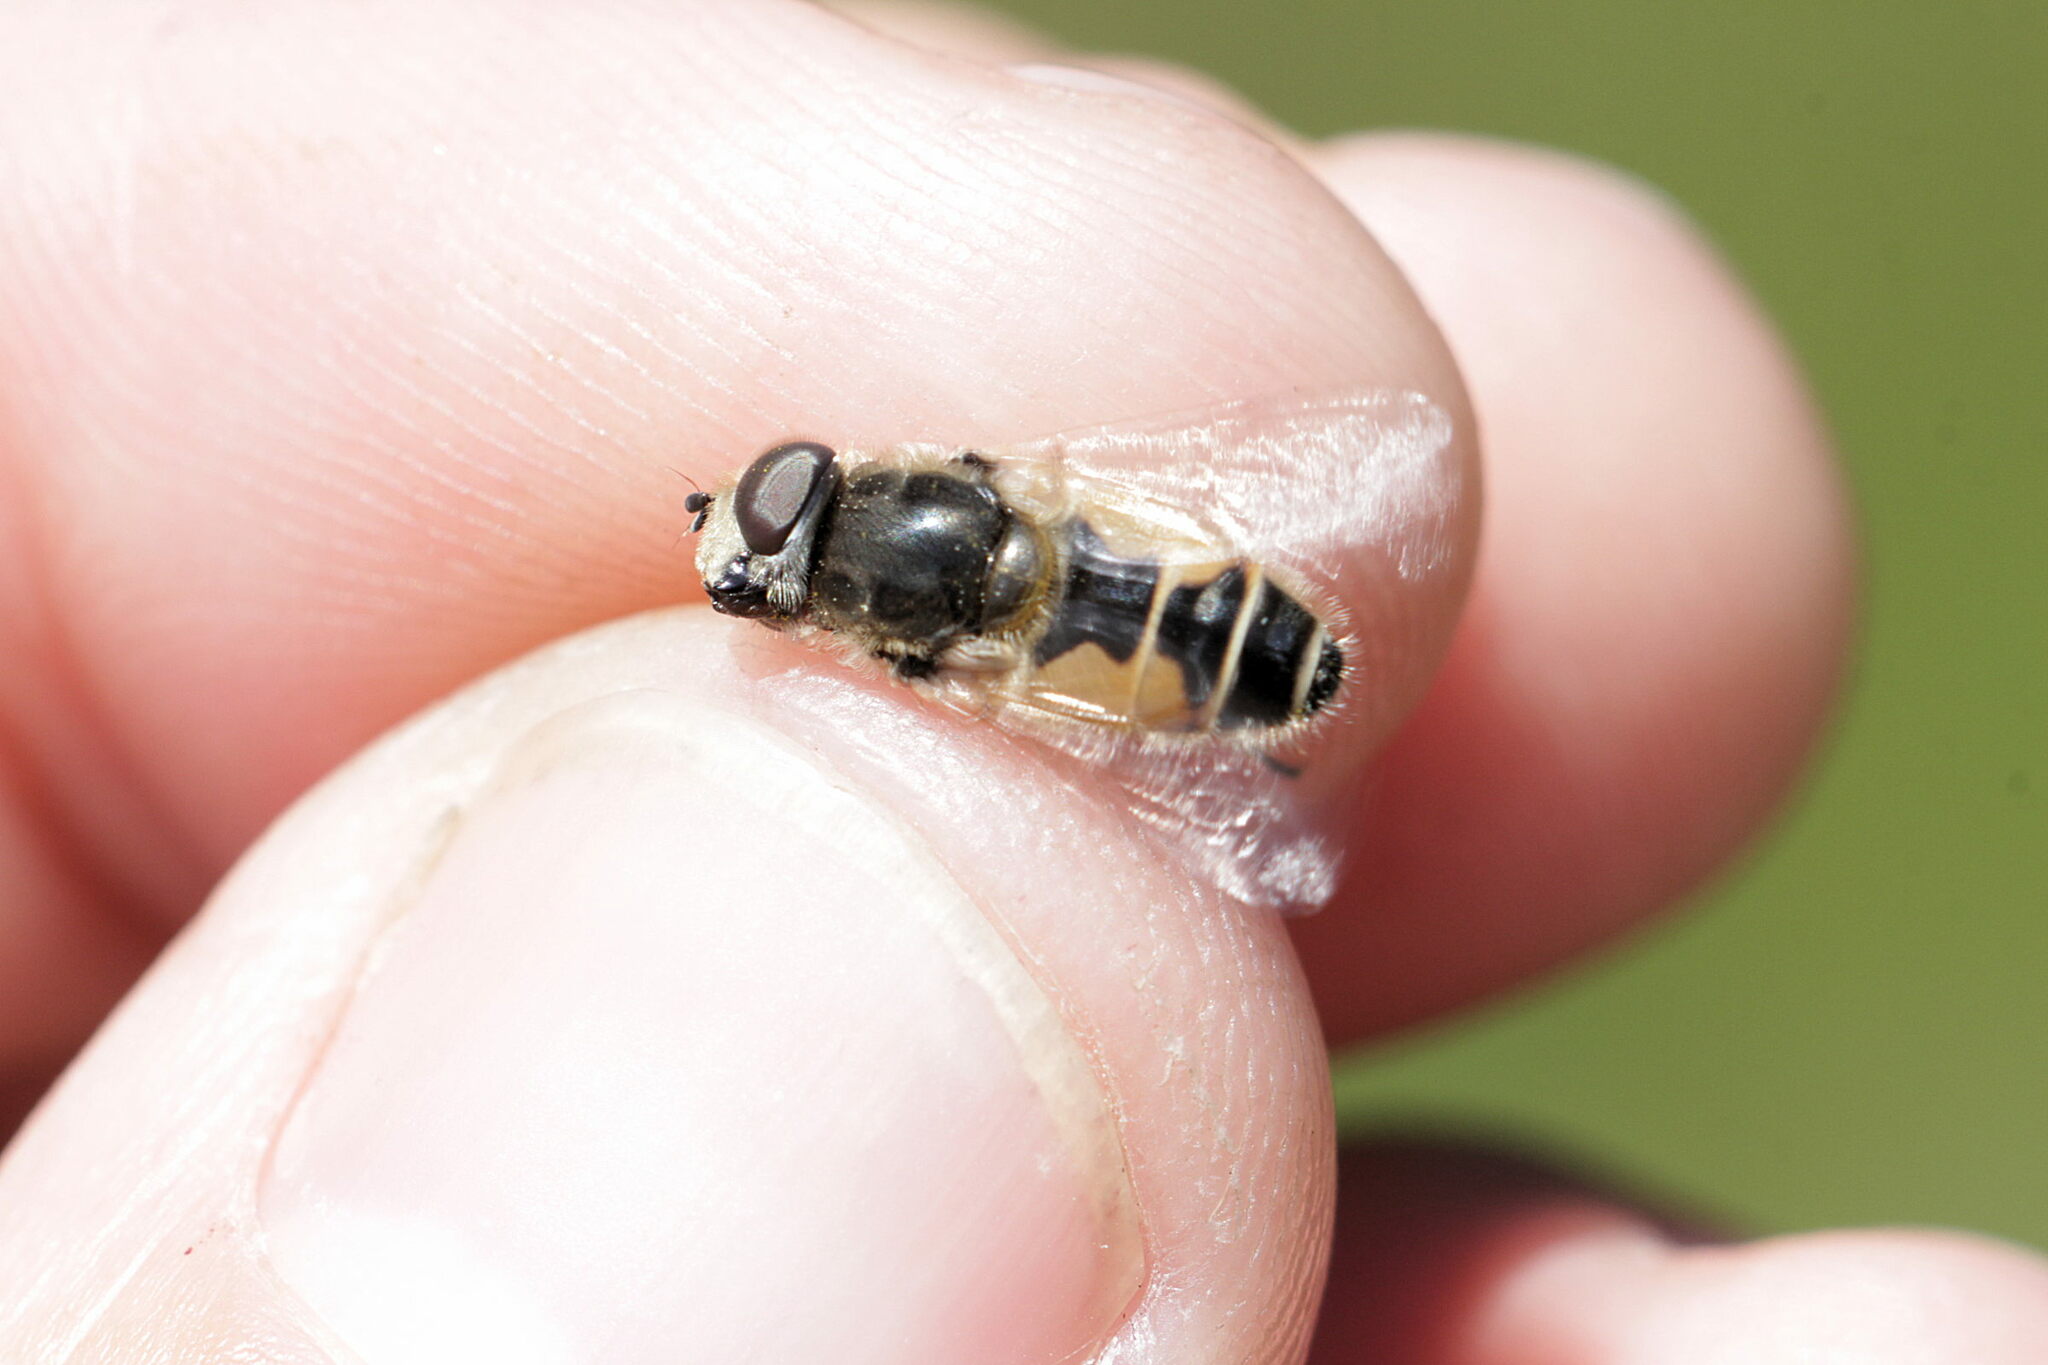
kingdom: Animalia
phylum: Arthropoda
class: Insecta
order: Diptera
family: Syrphidae
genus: Eristalis
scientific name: Eristalis arbustorum
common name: Hover fly
